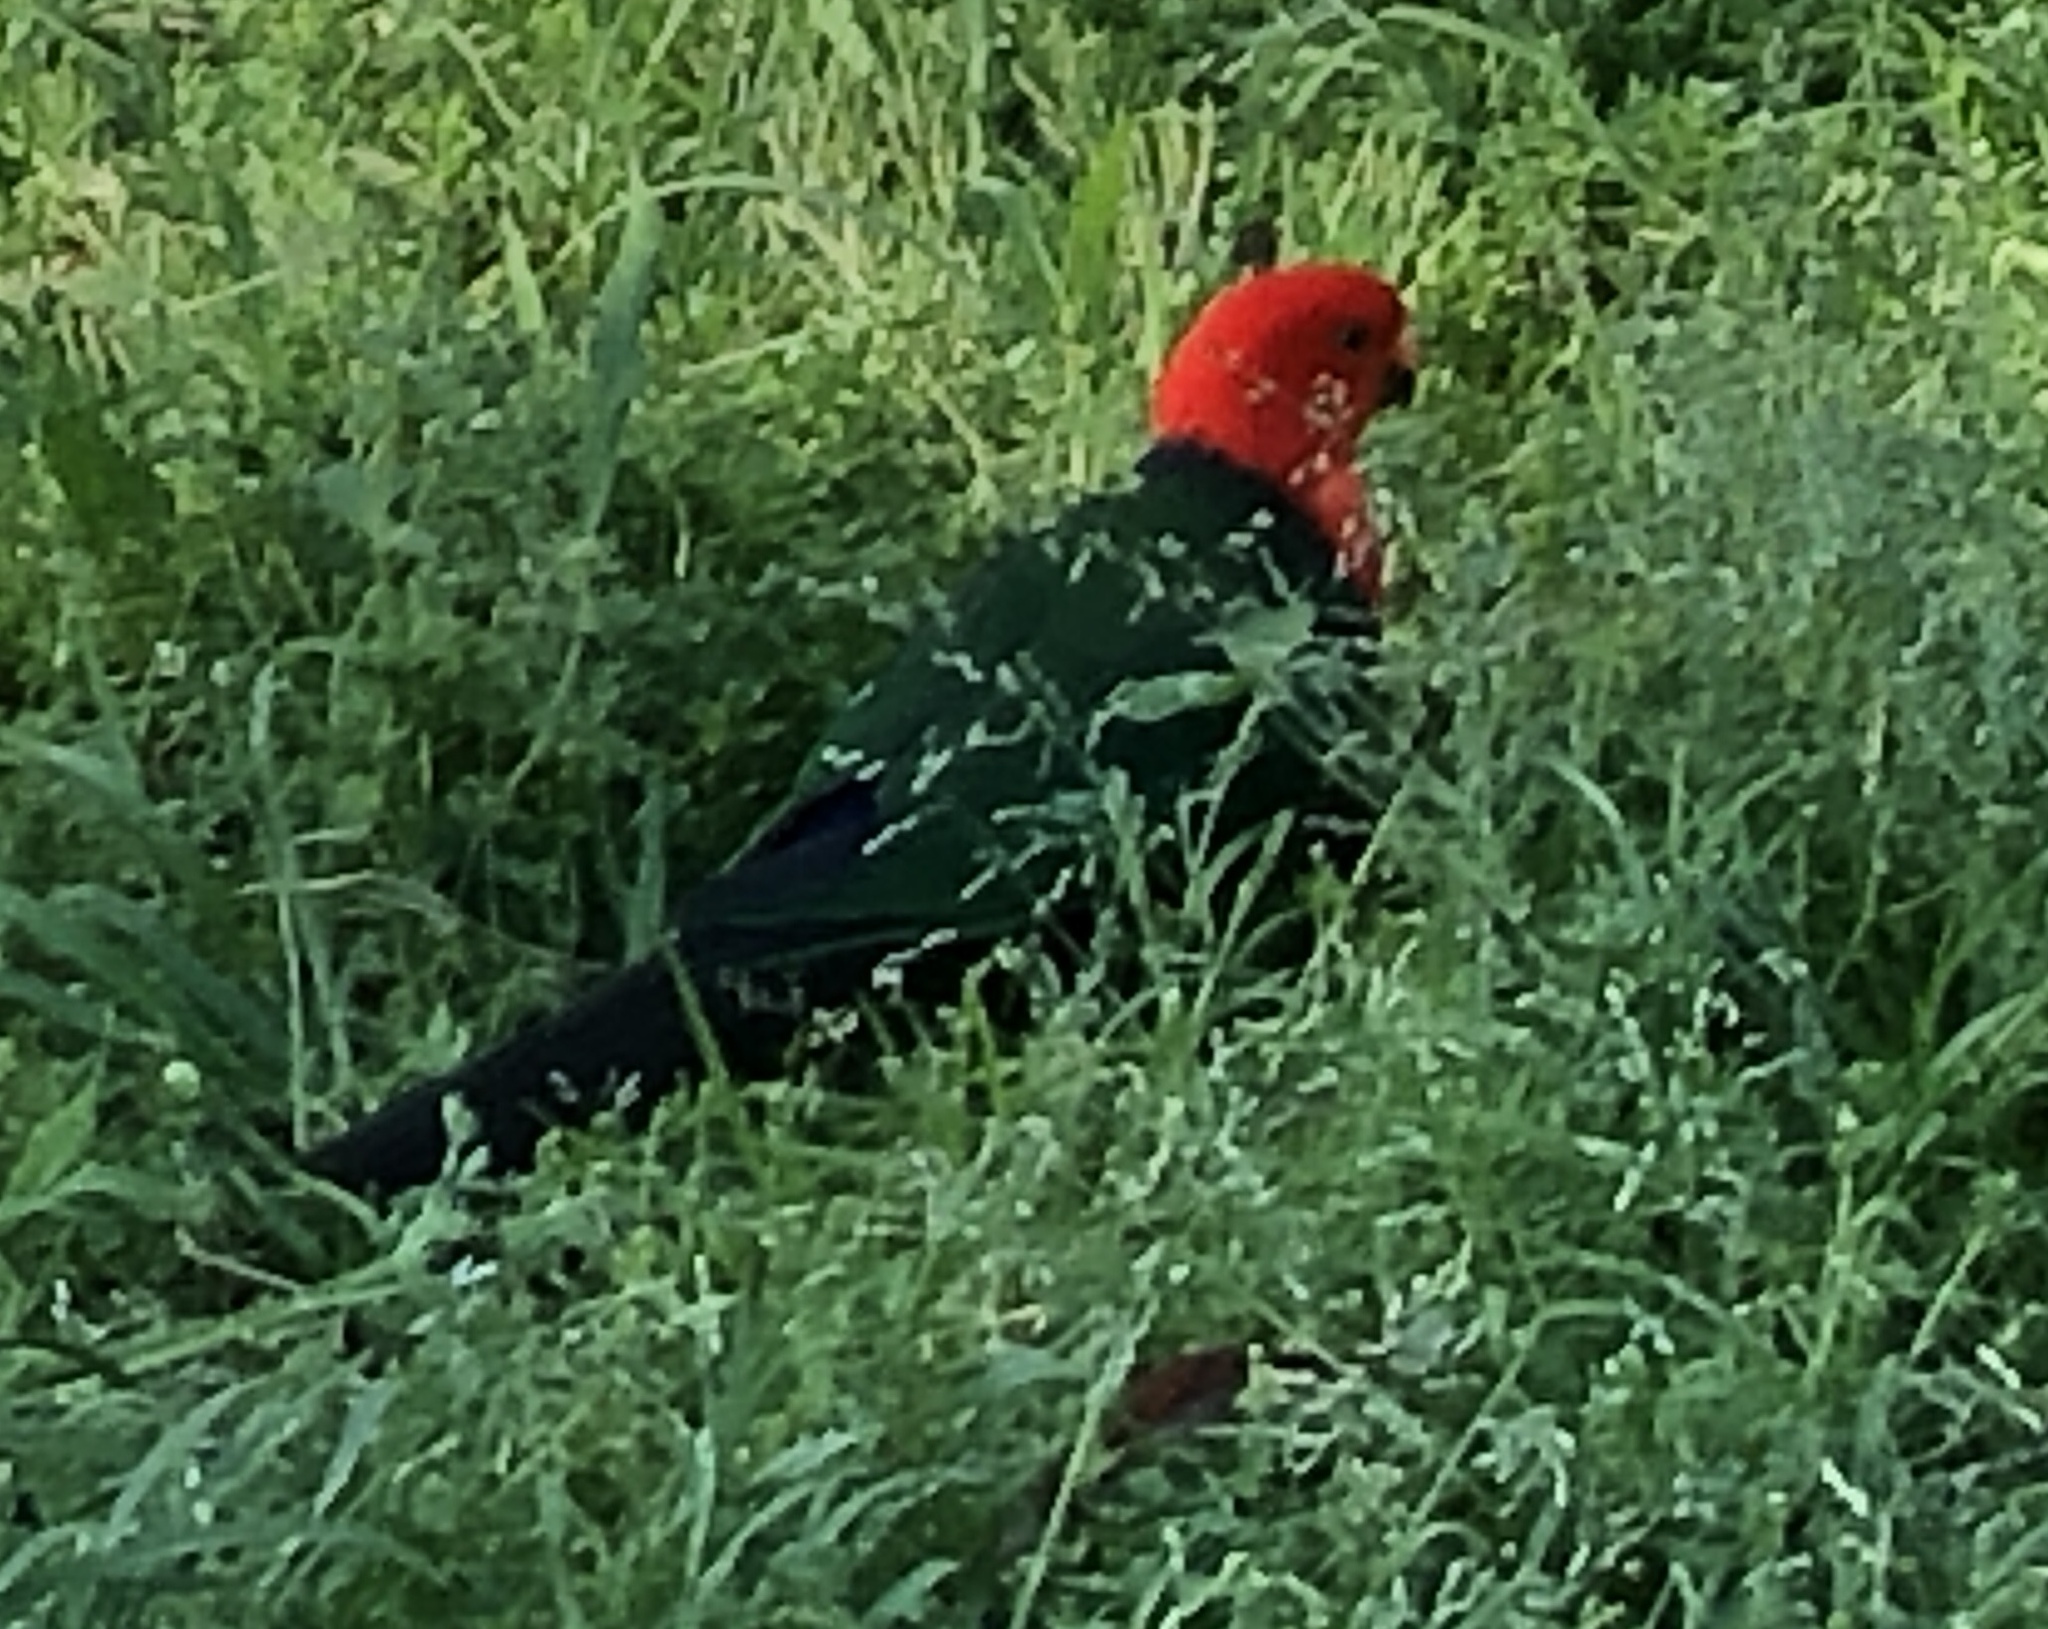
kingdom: Animalia
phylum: Chordata
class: Aves
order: Psittaciformes
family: Psittacidae
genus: Alisterus
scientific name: Alisterus scapularis
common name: Australian king parrot
